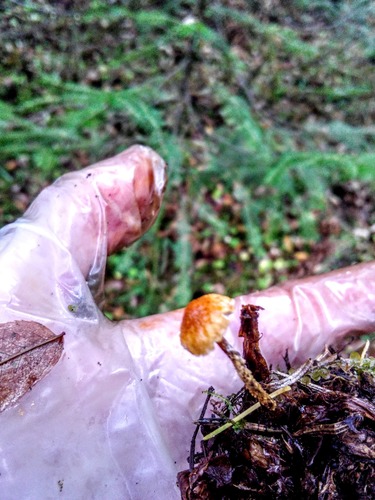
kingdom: Fungi
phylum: Basidiomycota
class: Agaricomycetes
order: Agaricales
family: Tricholomataceae
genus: Cystoderma
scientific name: Cystoderma jasonis
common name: Pine powdercap
